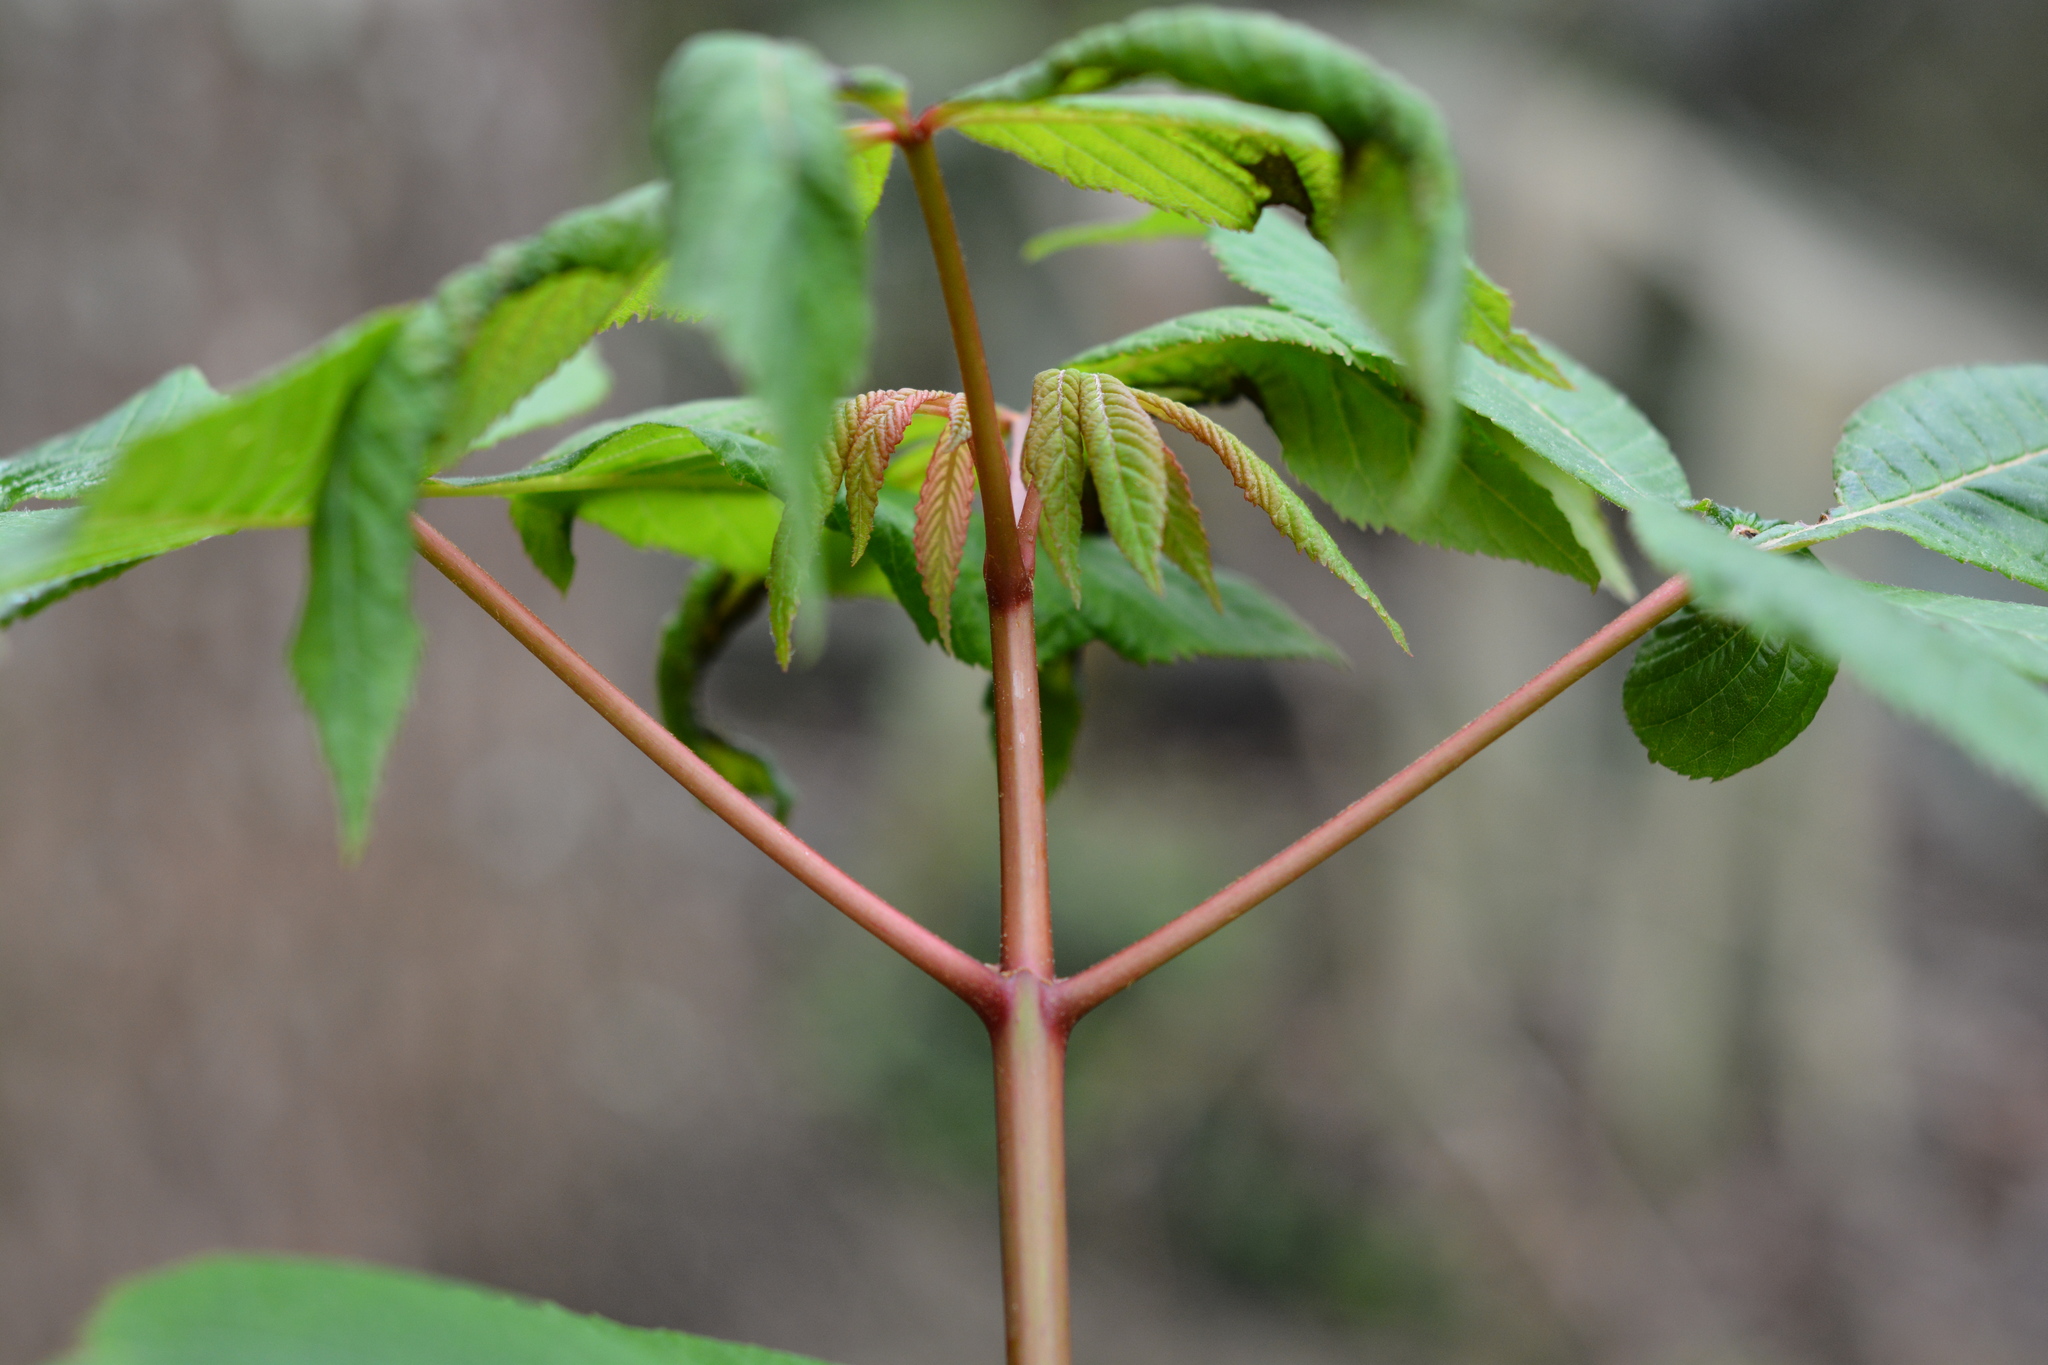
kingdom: Plantae
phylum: Tracheophyta
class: Magnoliopsida
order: Sapindales
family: Sapindaceae
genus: Aesculus
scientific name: Aesculus pavia
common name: Red buckeye
